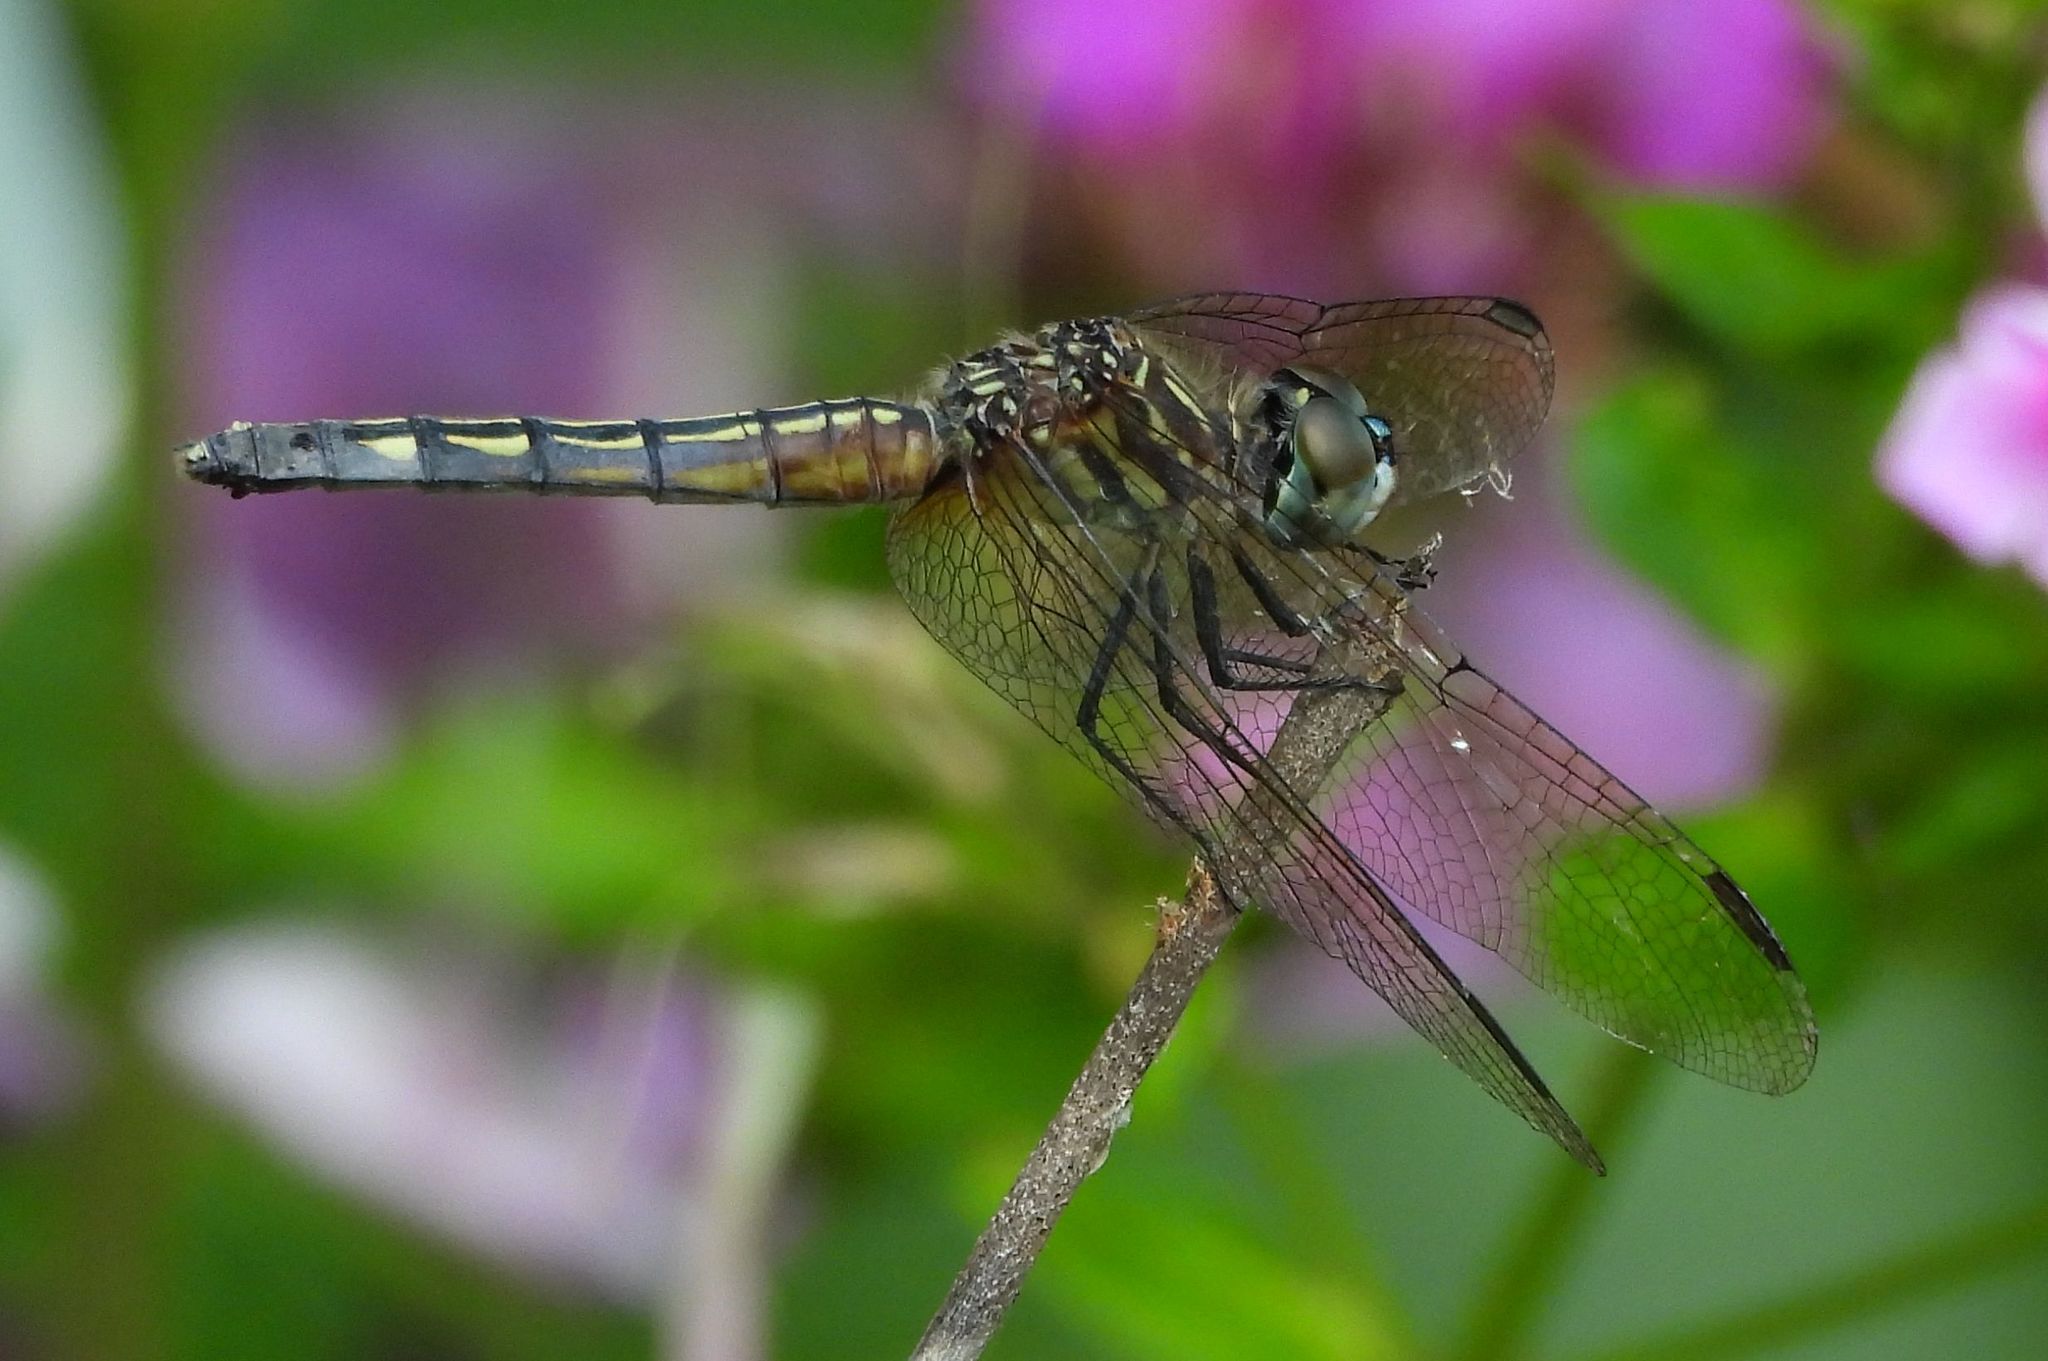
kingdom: Animalia
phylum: Arthropoda
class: Insecta
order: Odonata
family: Libellulidae
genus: Pachydiplax
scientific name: Pachydiplax longipennis
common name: Blue dasher
